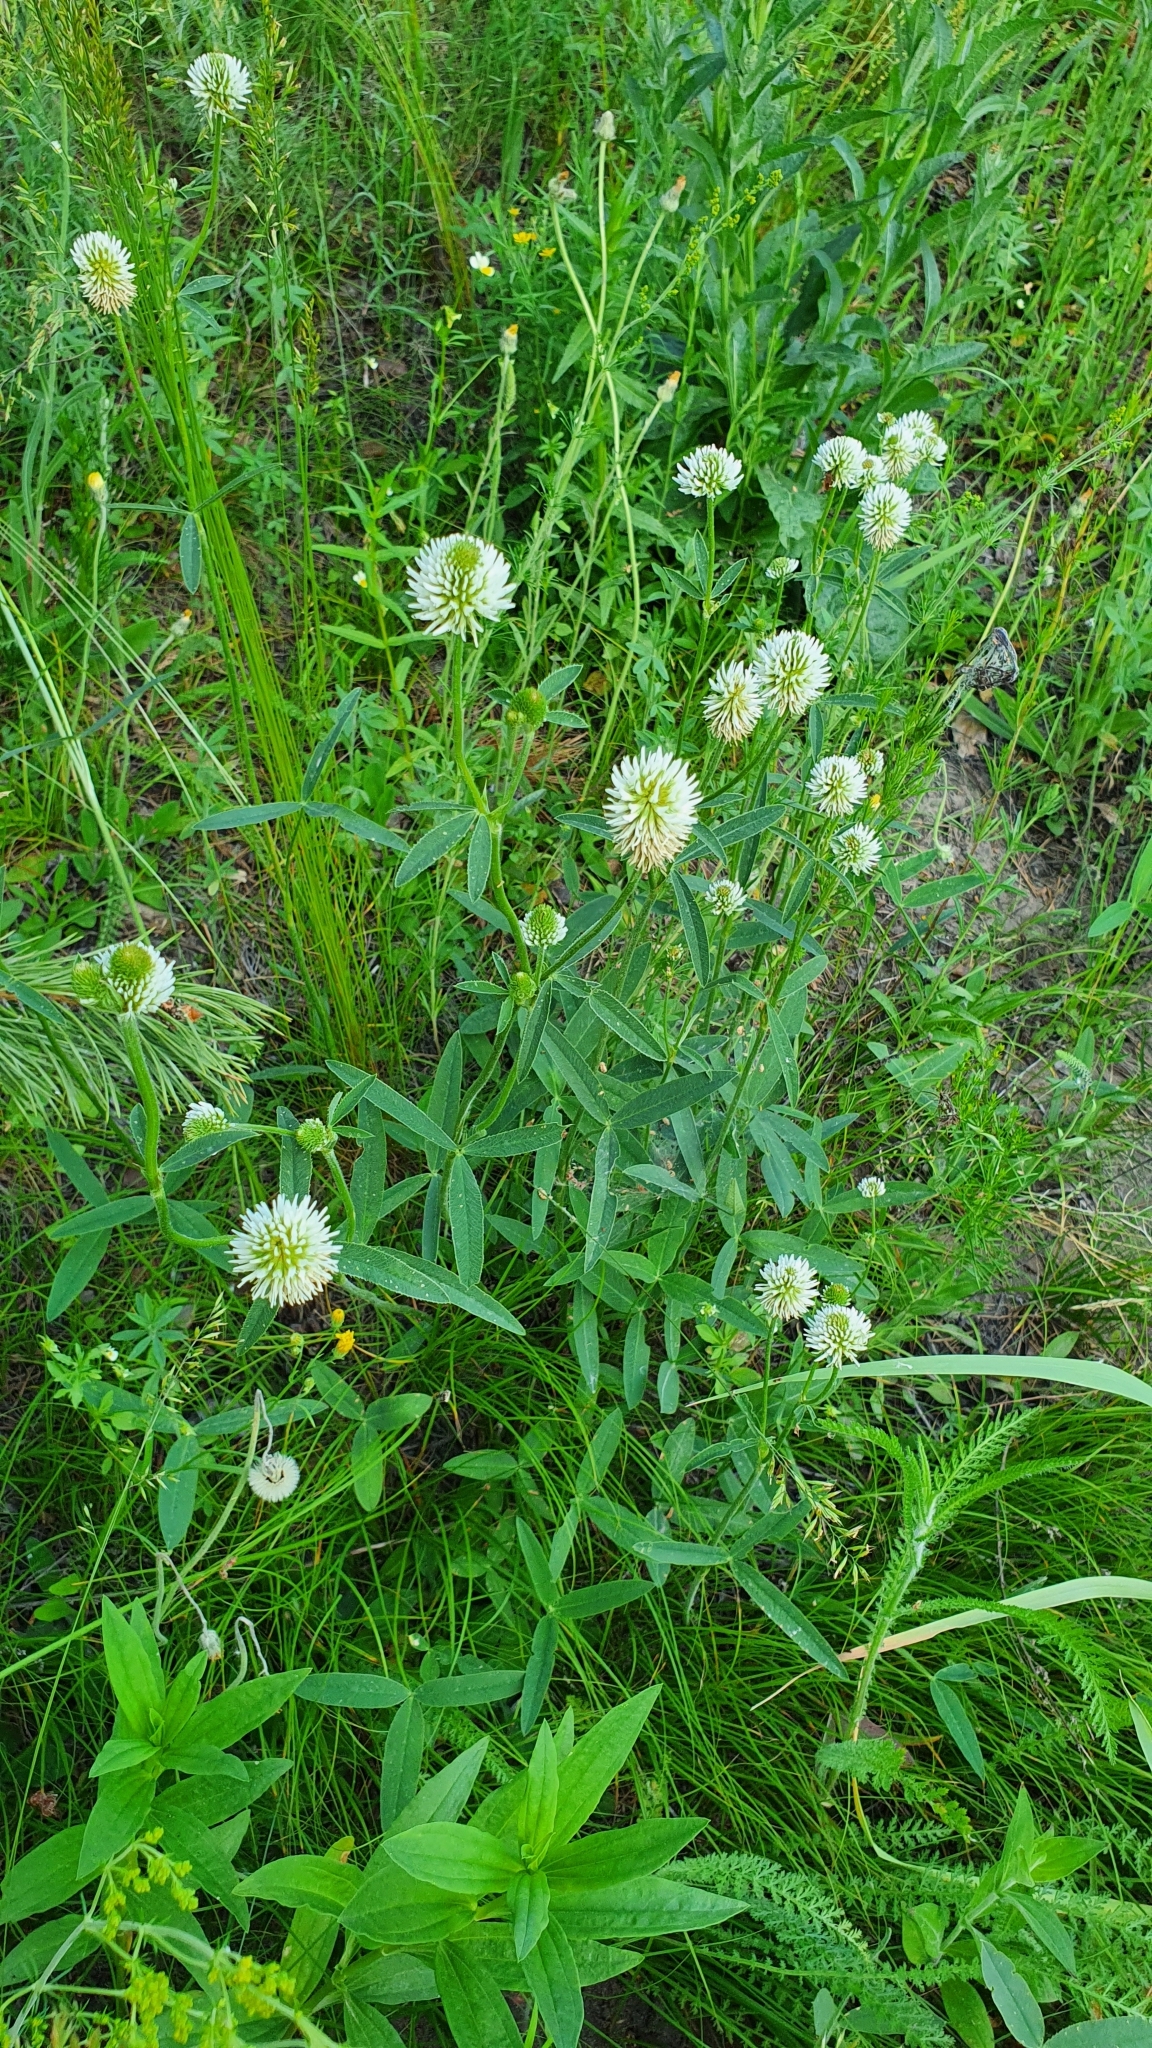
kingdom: Plantae
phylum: Tracheophyta
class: Magnoliopsida
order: Fabales
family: Fabaceae
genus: Trifolium
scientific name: Trifolium montanum
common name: Mountain clover
